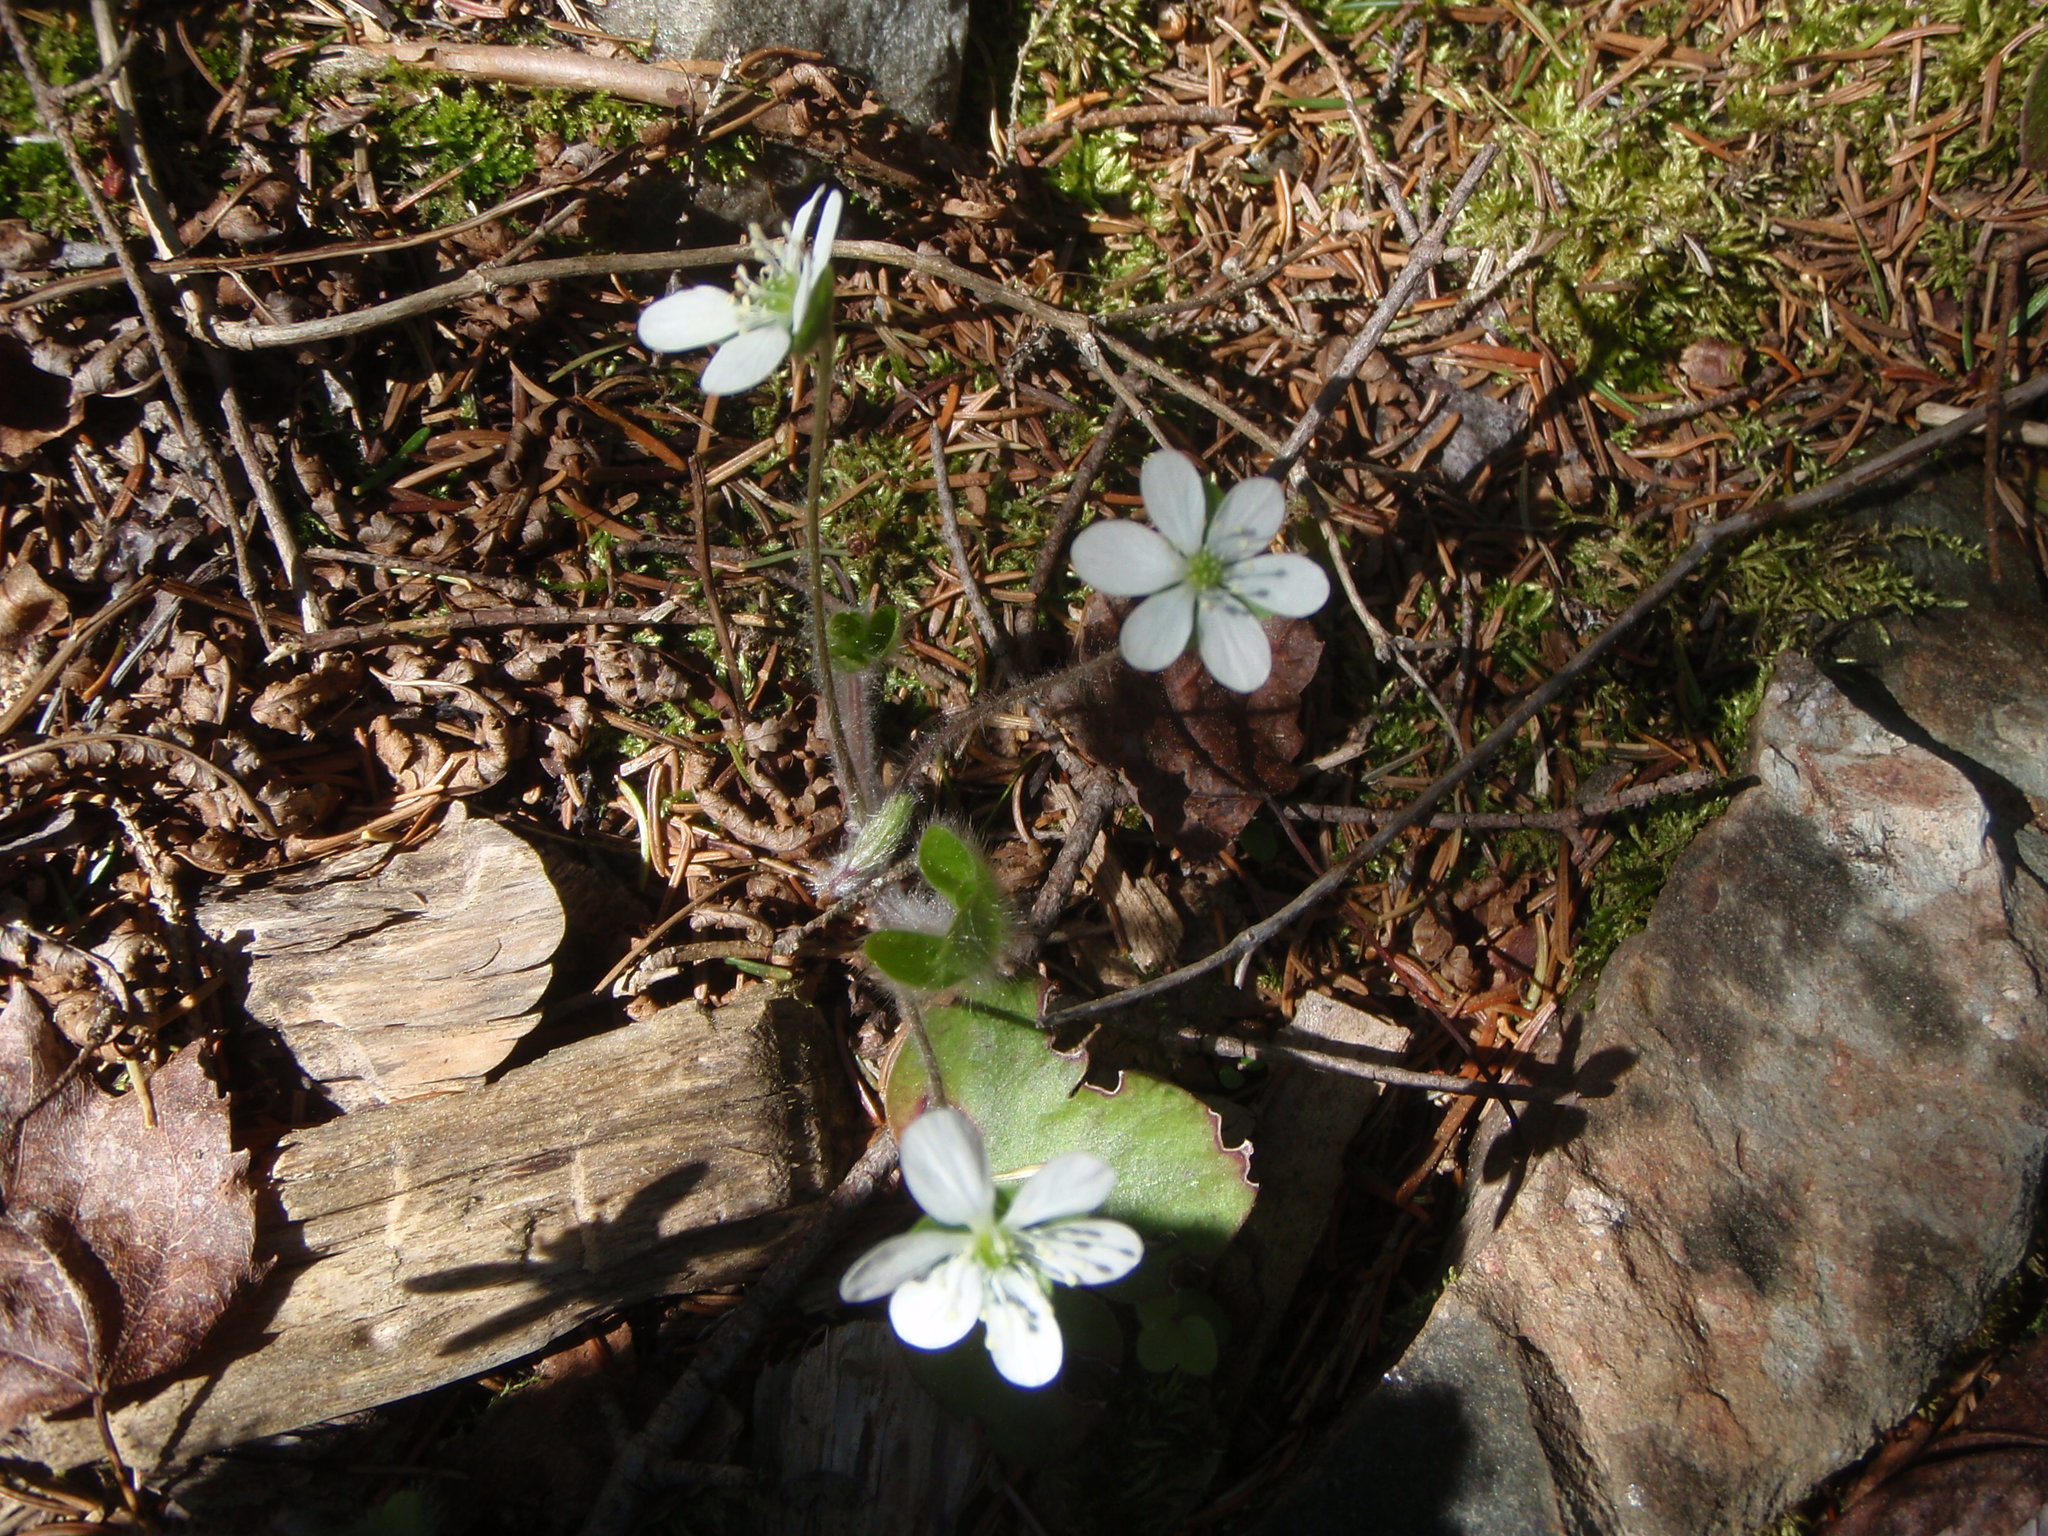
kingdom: Plantae
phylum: Tracheophyta
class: Magnoliopsida
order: Ranunculales
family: Ranunculaceae
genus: Hepatica
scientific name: Hepatica americana
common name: American hepatica
